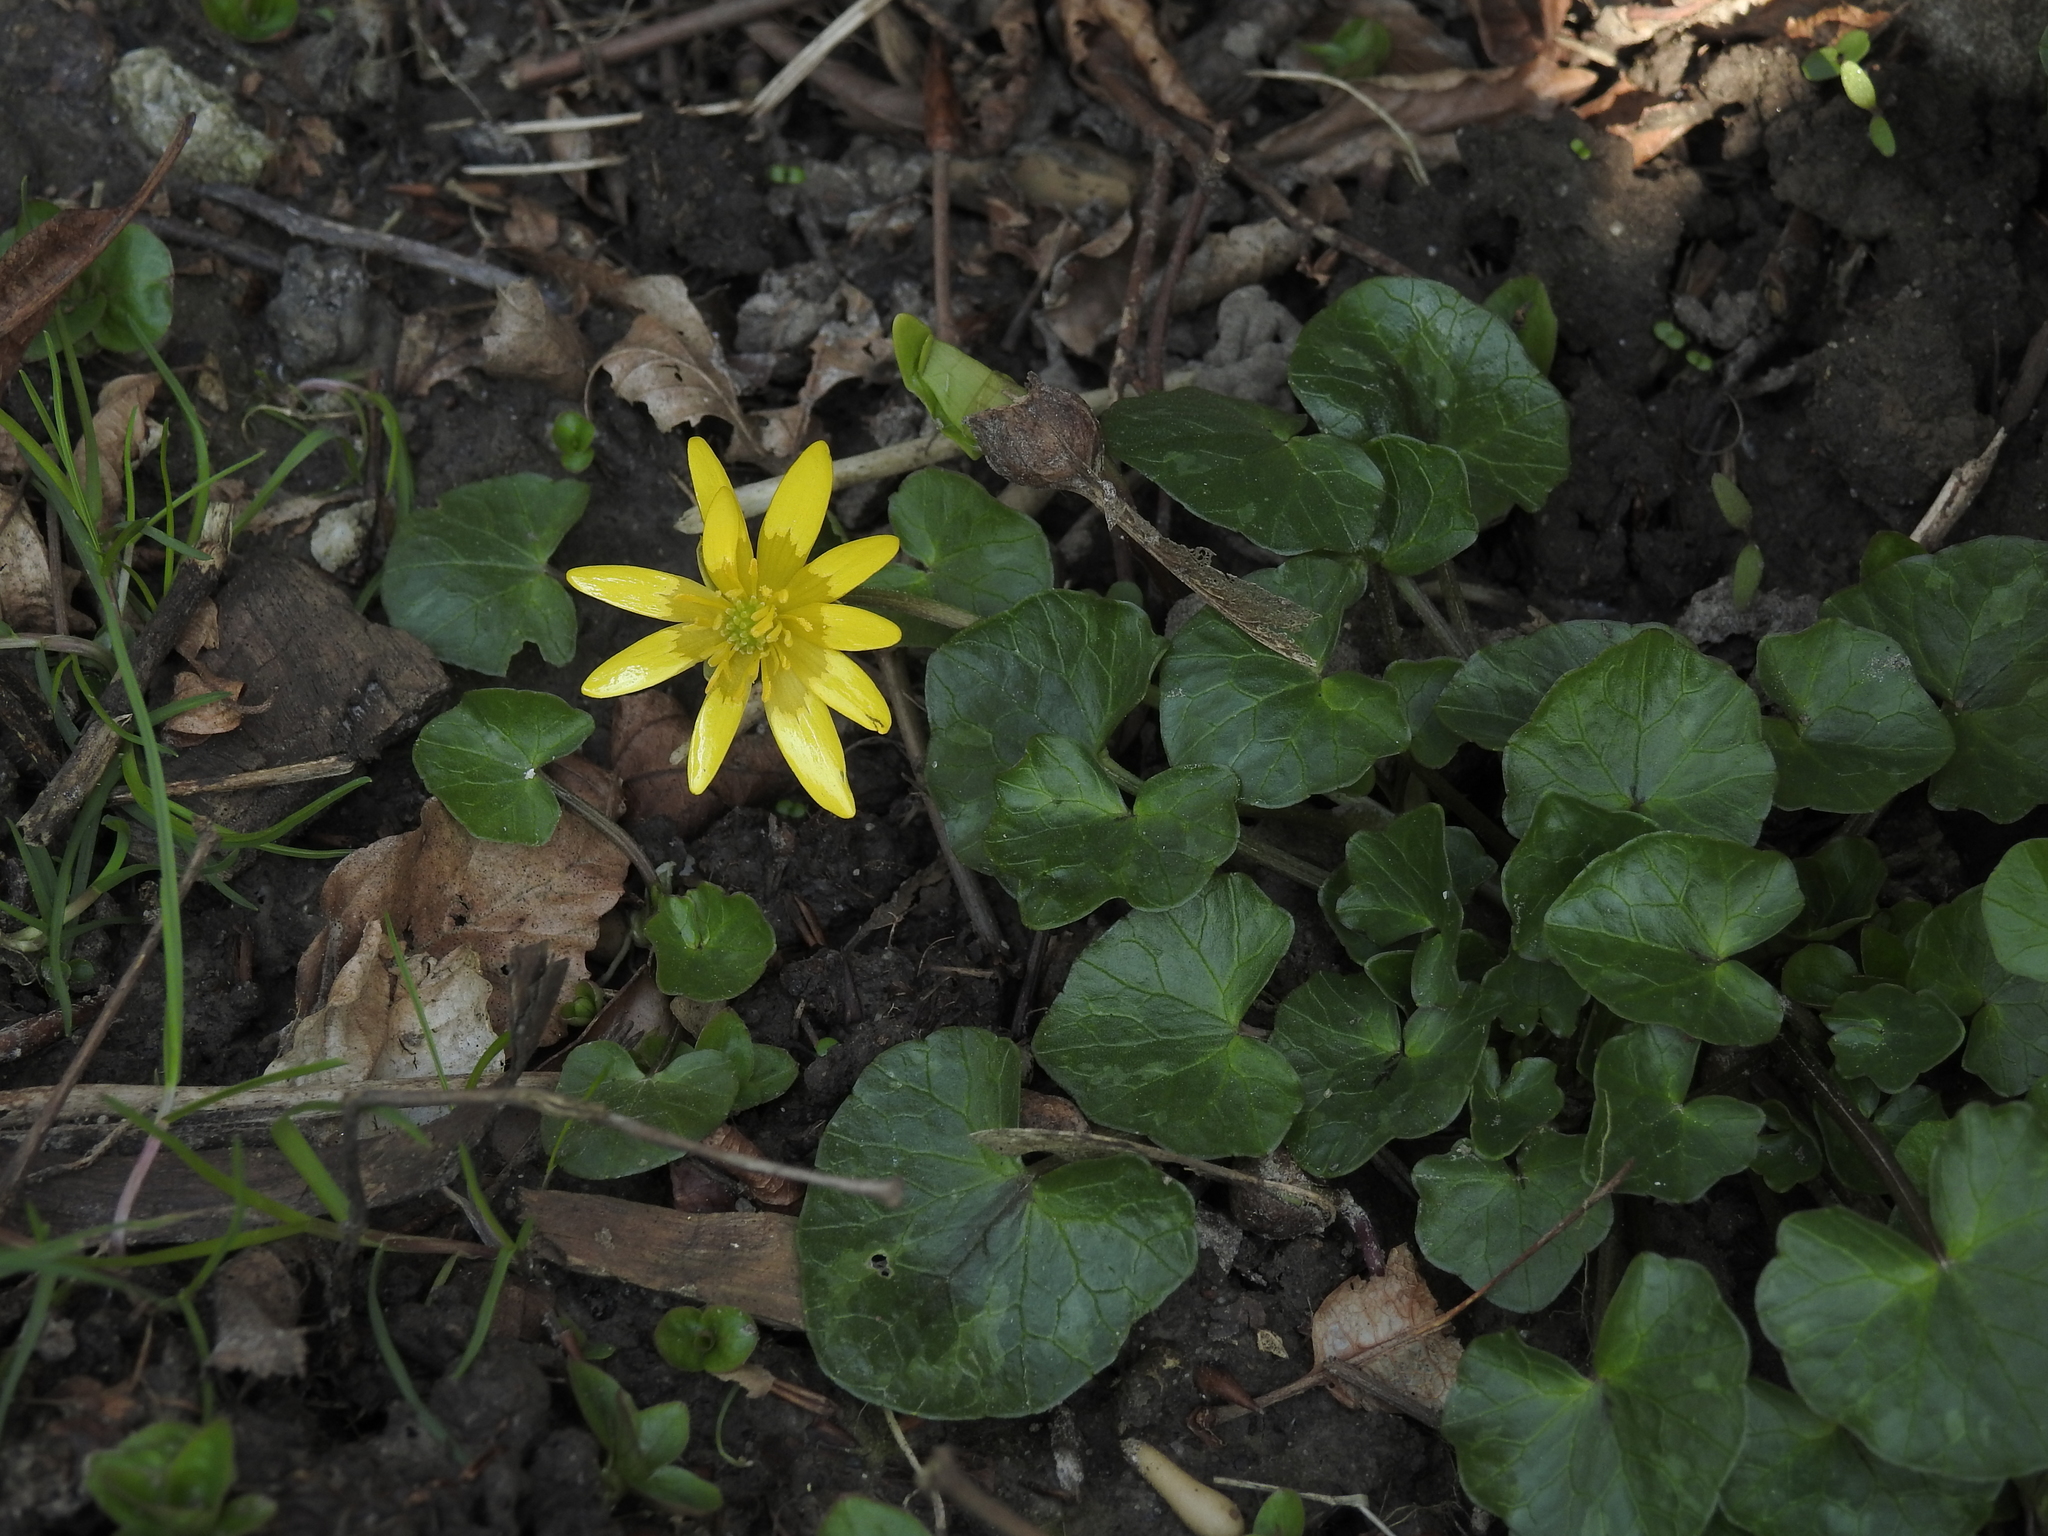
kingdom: Plantae
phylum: Tracheophyta
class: Magnoliopsida
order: Ranunculales
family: Ranunculaceae
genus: Ficaria
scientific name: Ficaria verna
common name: Lesser celandine
